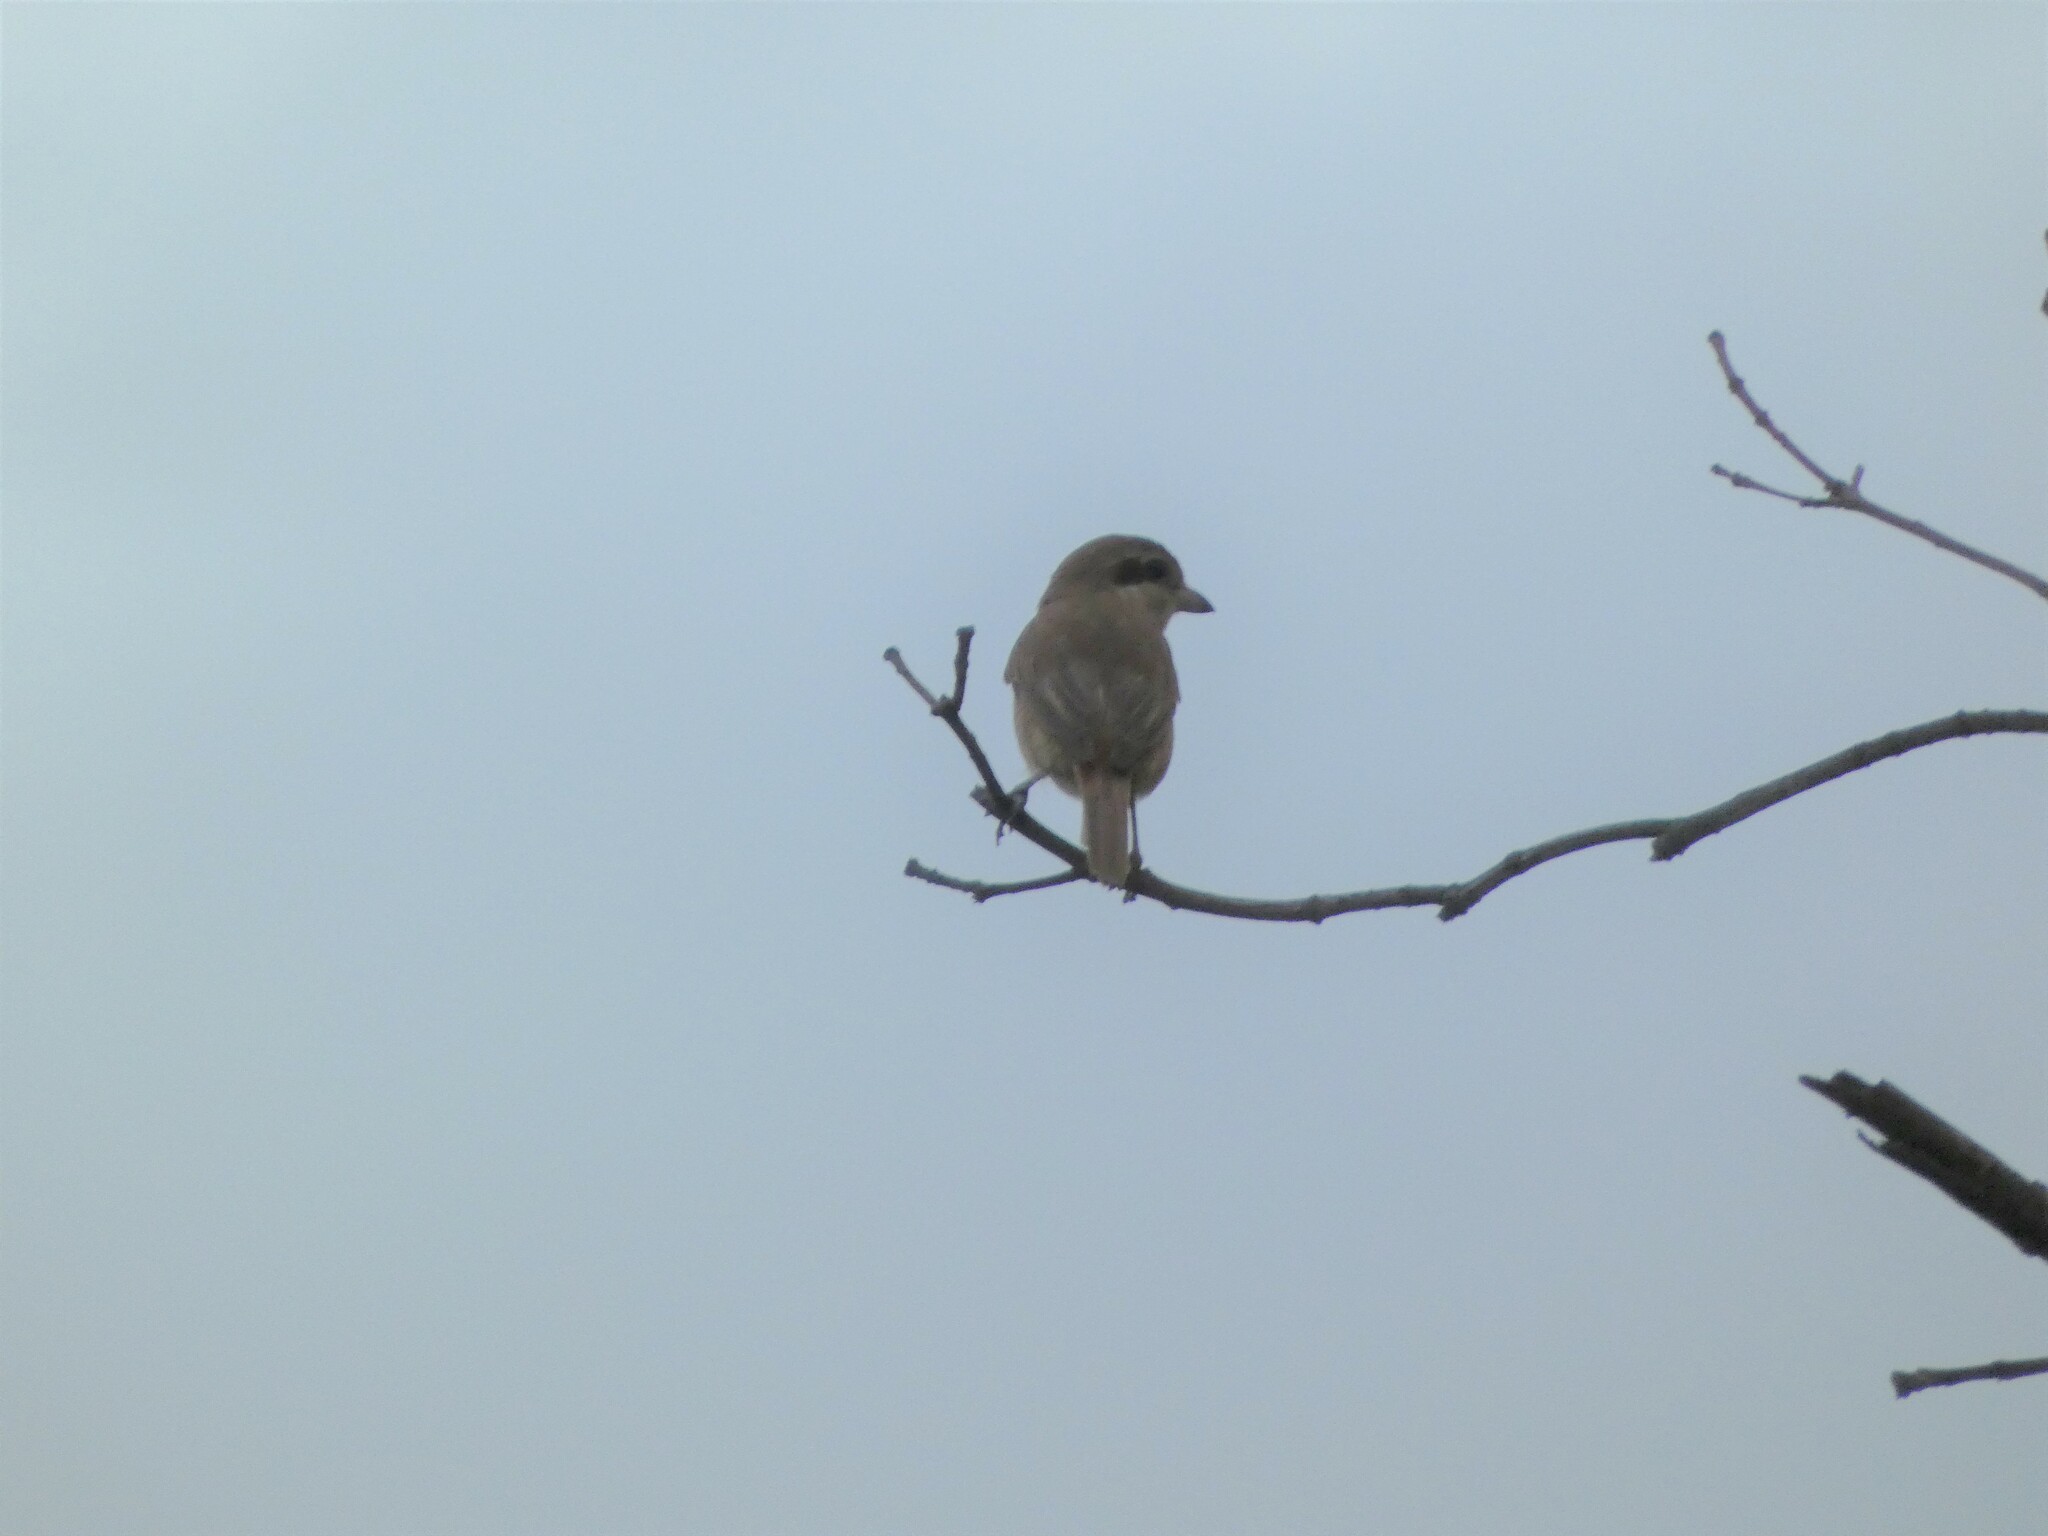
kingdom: Animalia
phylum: Chordata
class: Aves
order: Passeriformes
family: Laniidae
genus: Lanius
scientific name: Lanius cristatus
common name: Brown shrike
